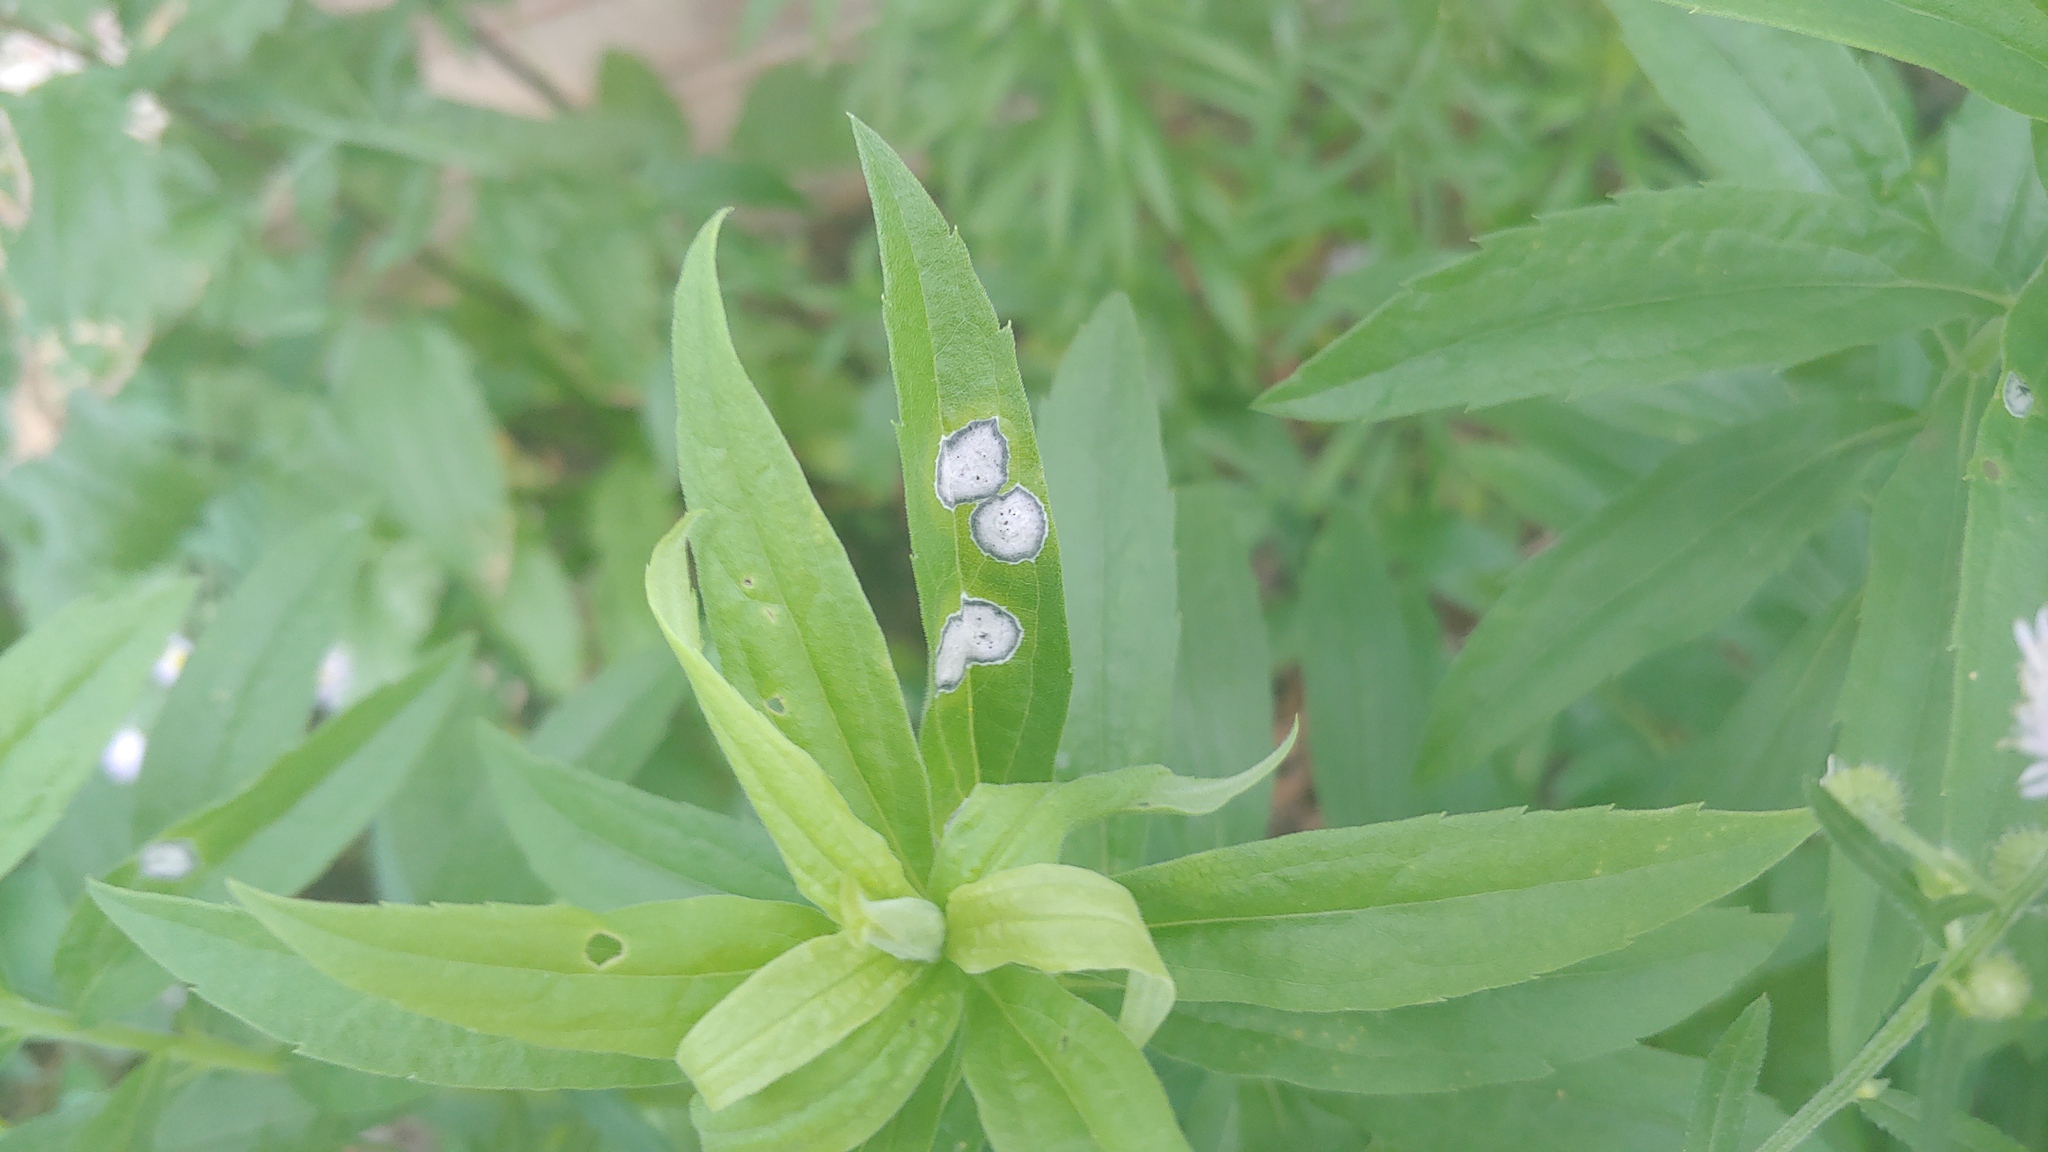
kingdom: Animalia
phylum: Arthropoda
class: Insecta
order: Diptera
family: Cecidomyiidae
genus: Asteromyia
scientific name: Asteromyia carbonifera
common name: Carbonifera goldenrod gall midge
